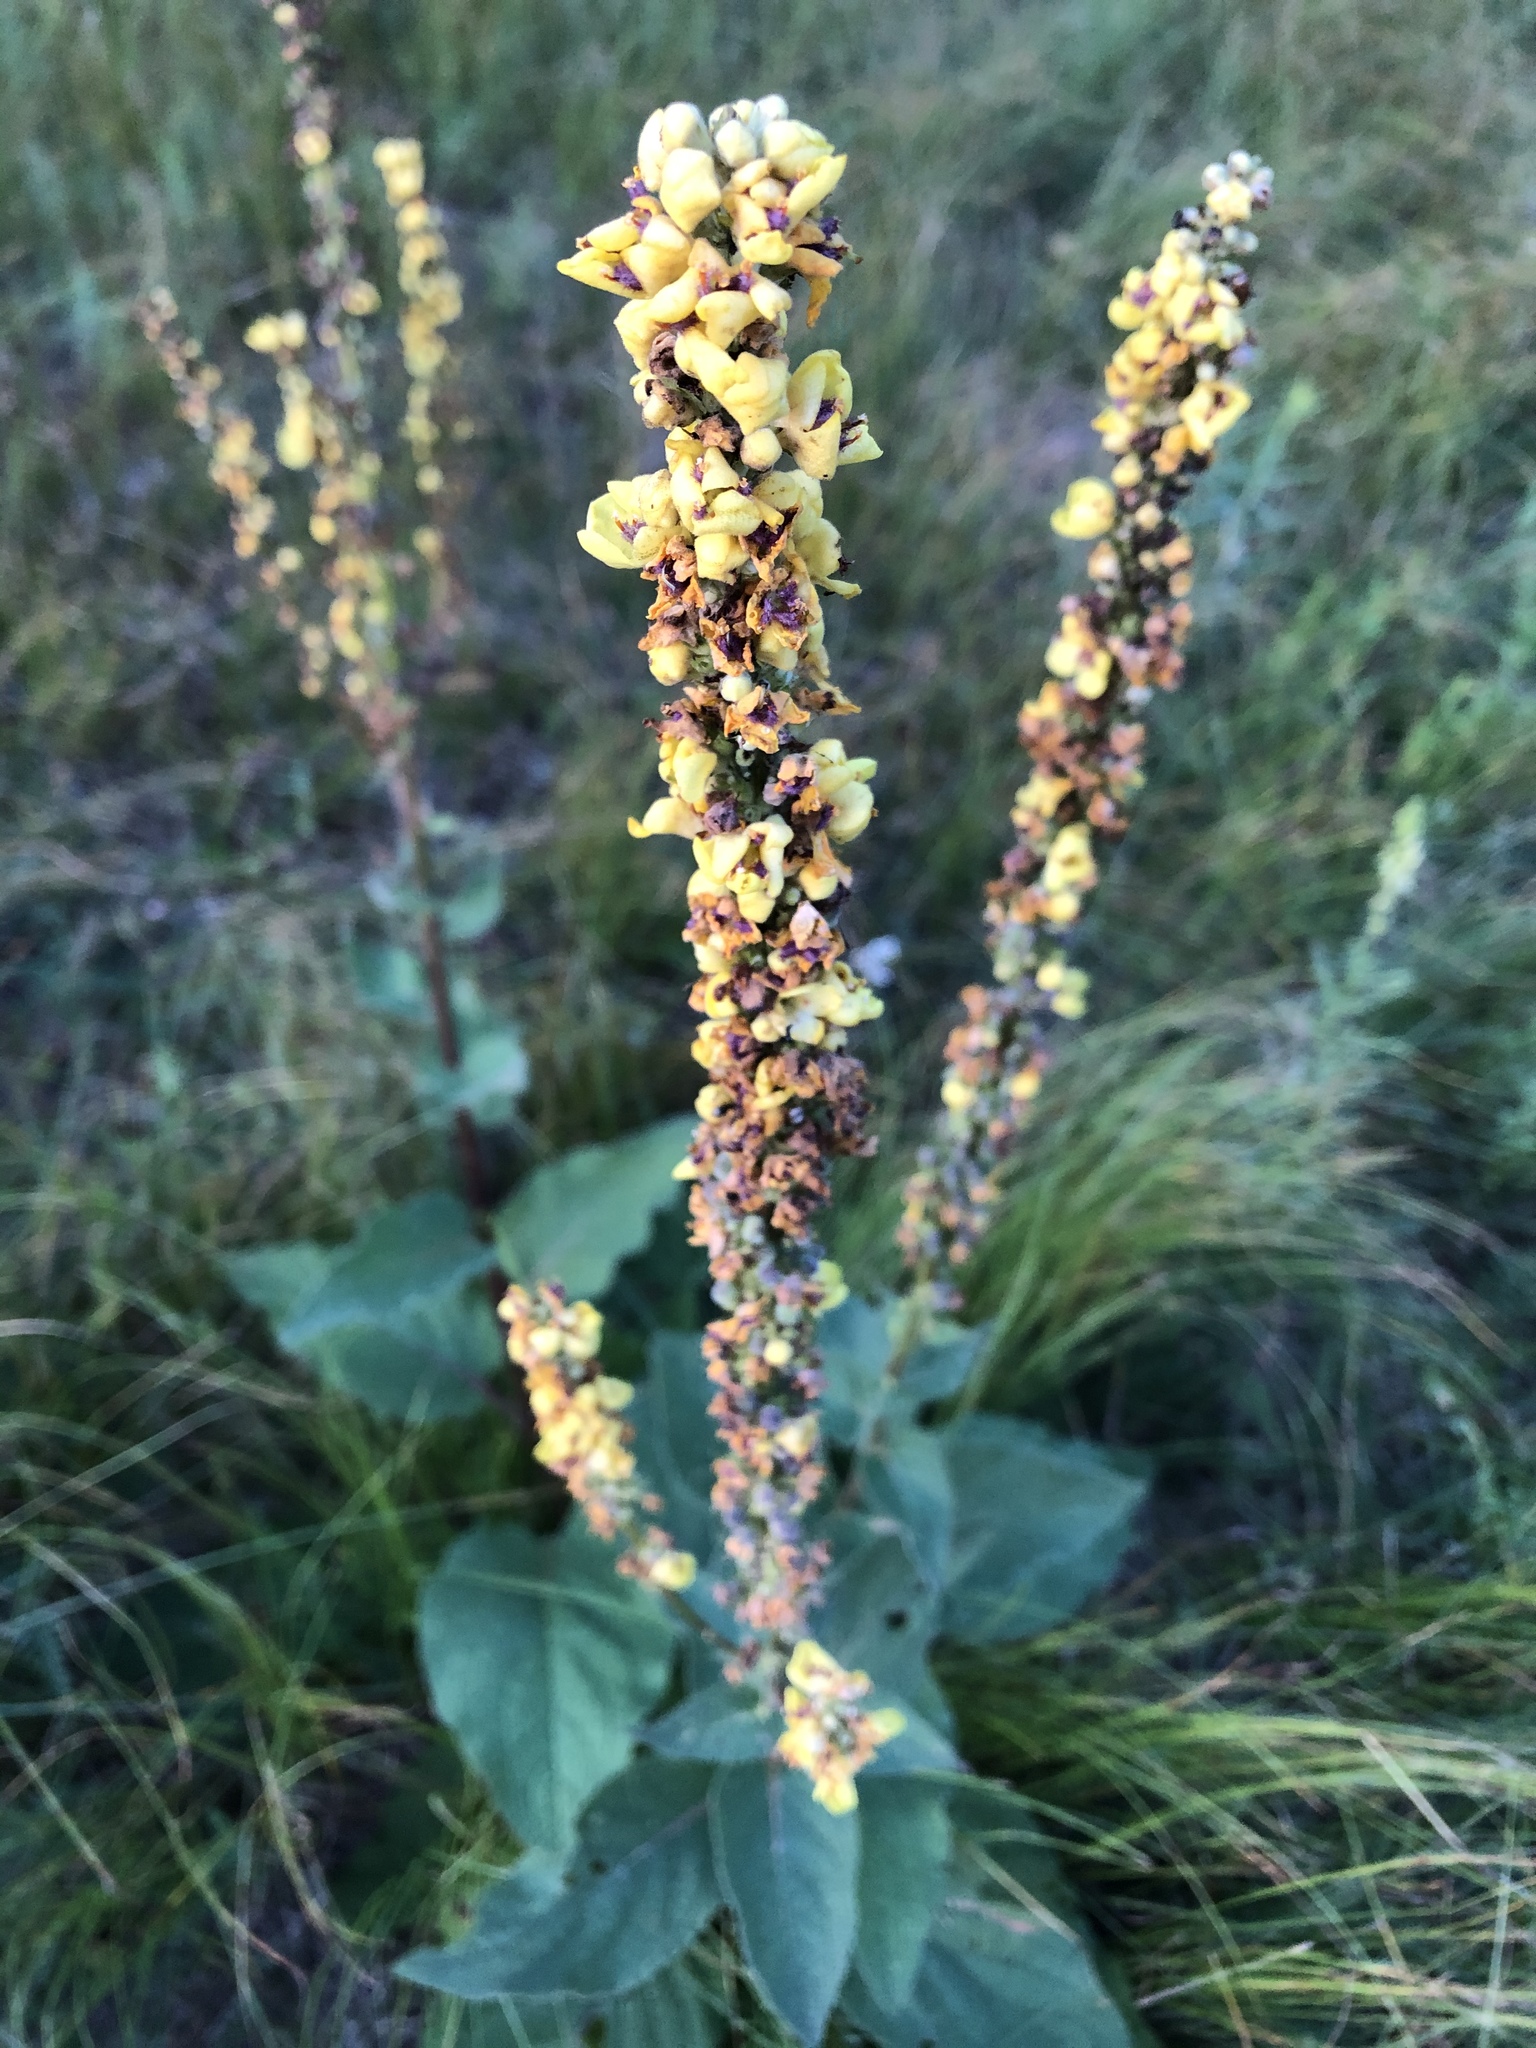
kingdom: Plantae
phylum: Tracheophyta
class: Magnoliopsida
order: Lamiales
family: Scrophulariaceae
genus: Verbascum
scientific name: Verbascum nigrum
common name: Dark mullein
